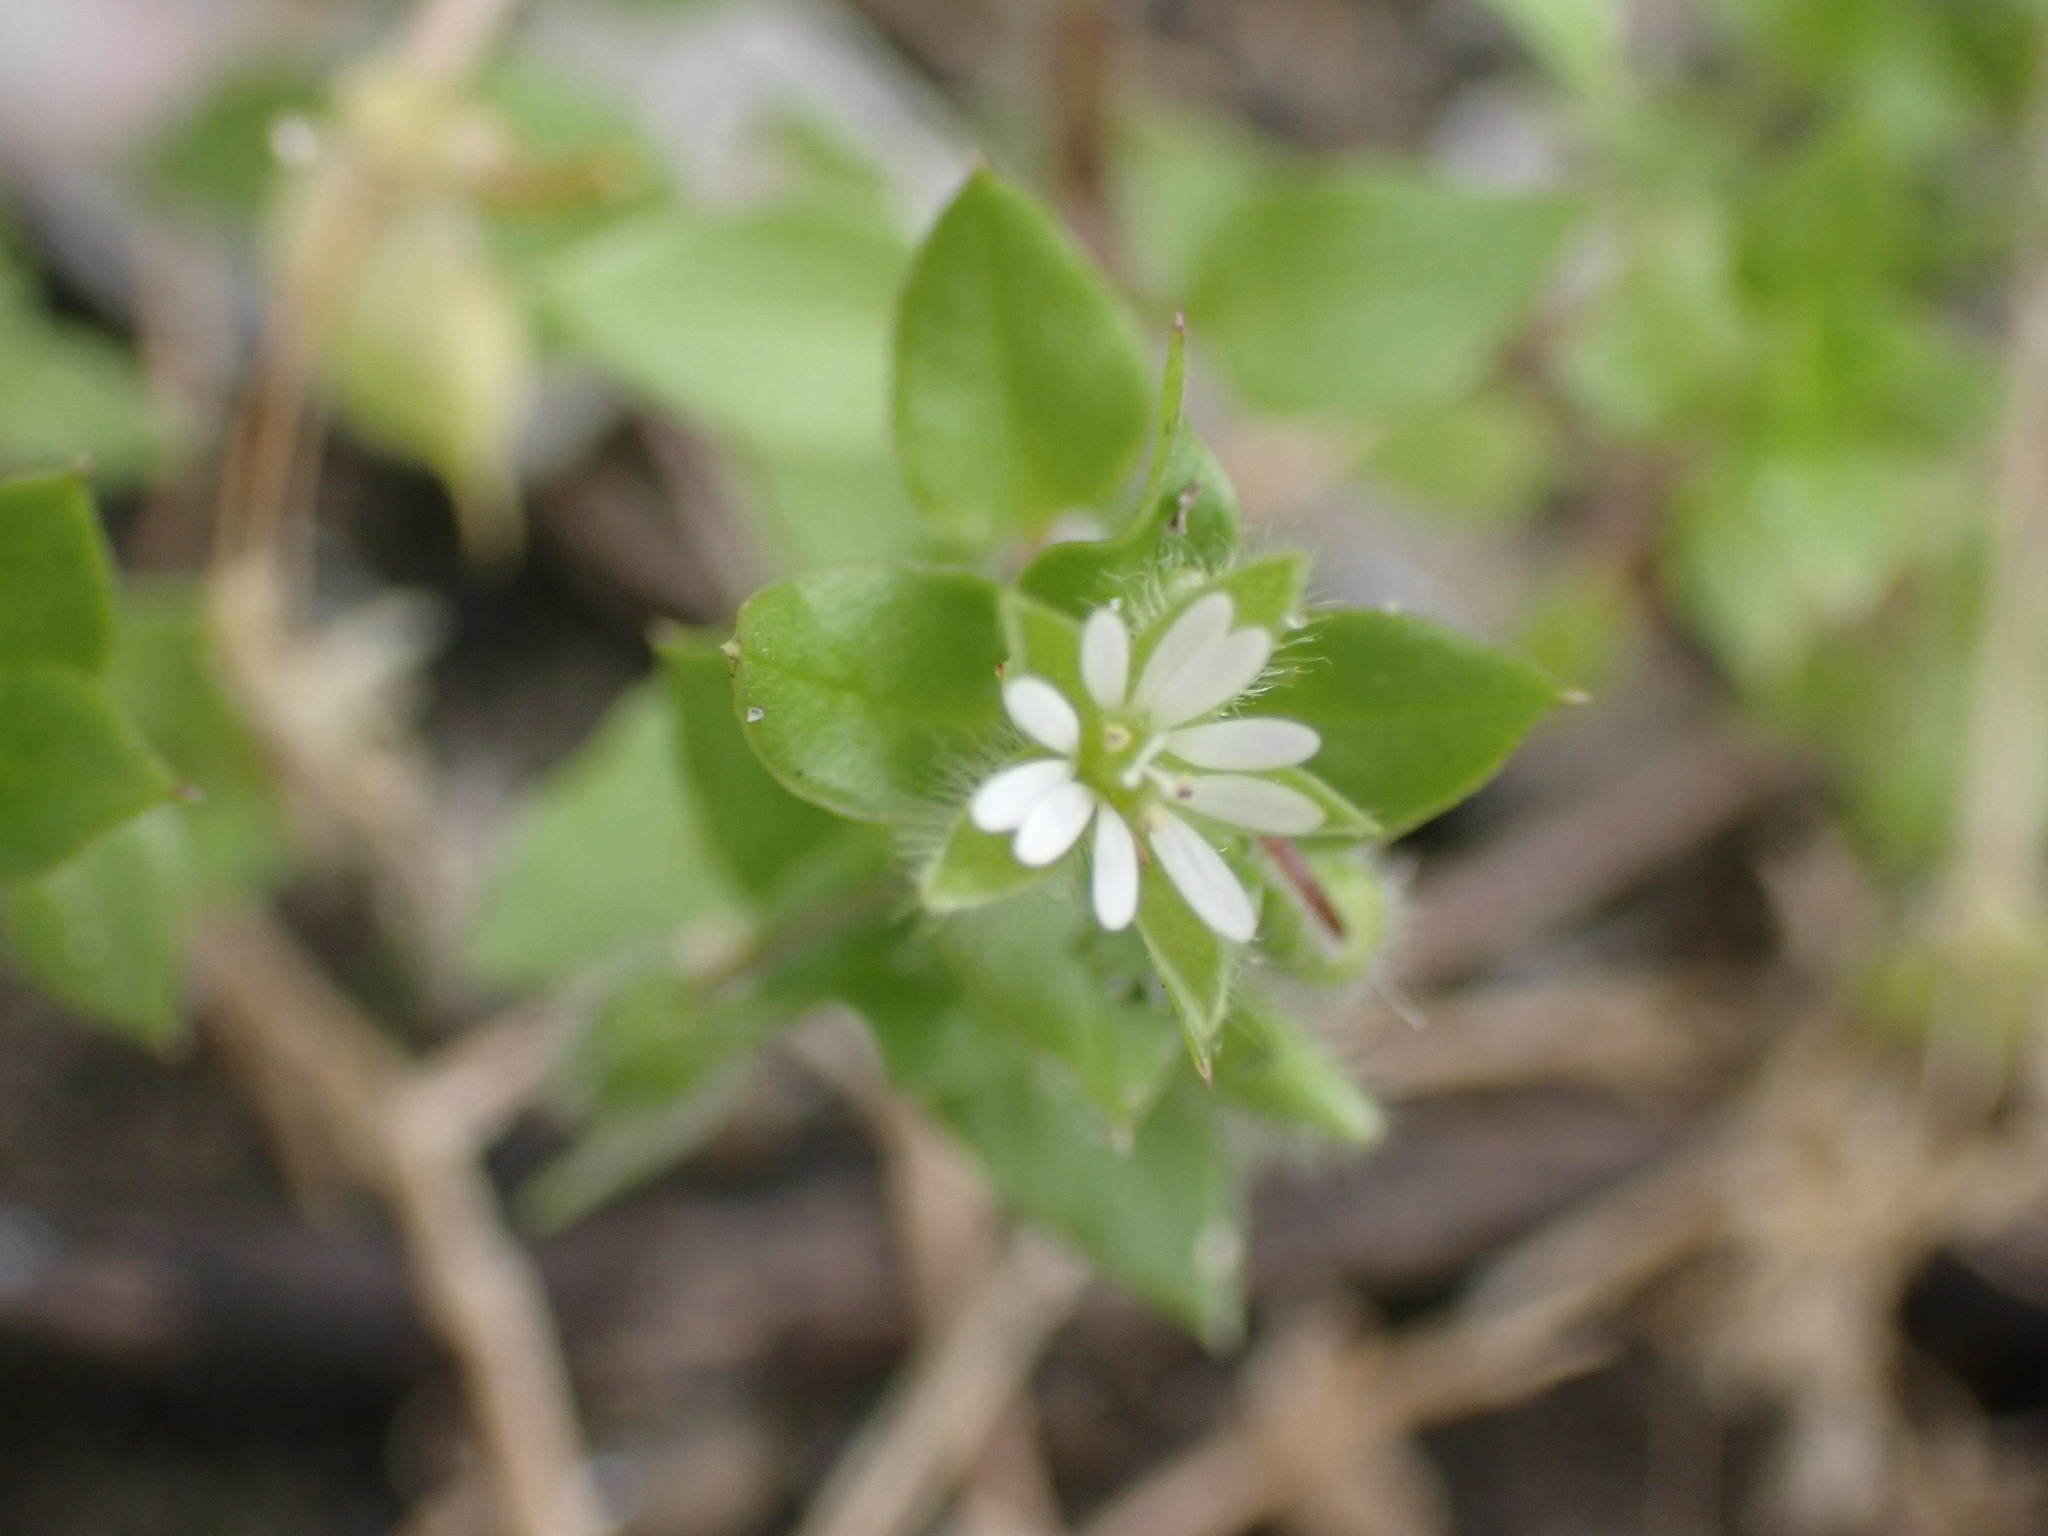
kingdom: Plantae
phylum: Tracheophyta
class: Magnoliopsida
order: Caryophyllales
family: Caryophyllaceae
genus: Stellaria
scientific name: Stellaria media
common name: Common chickweed
